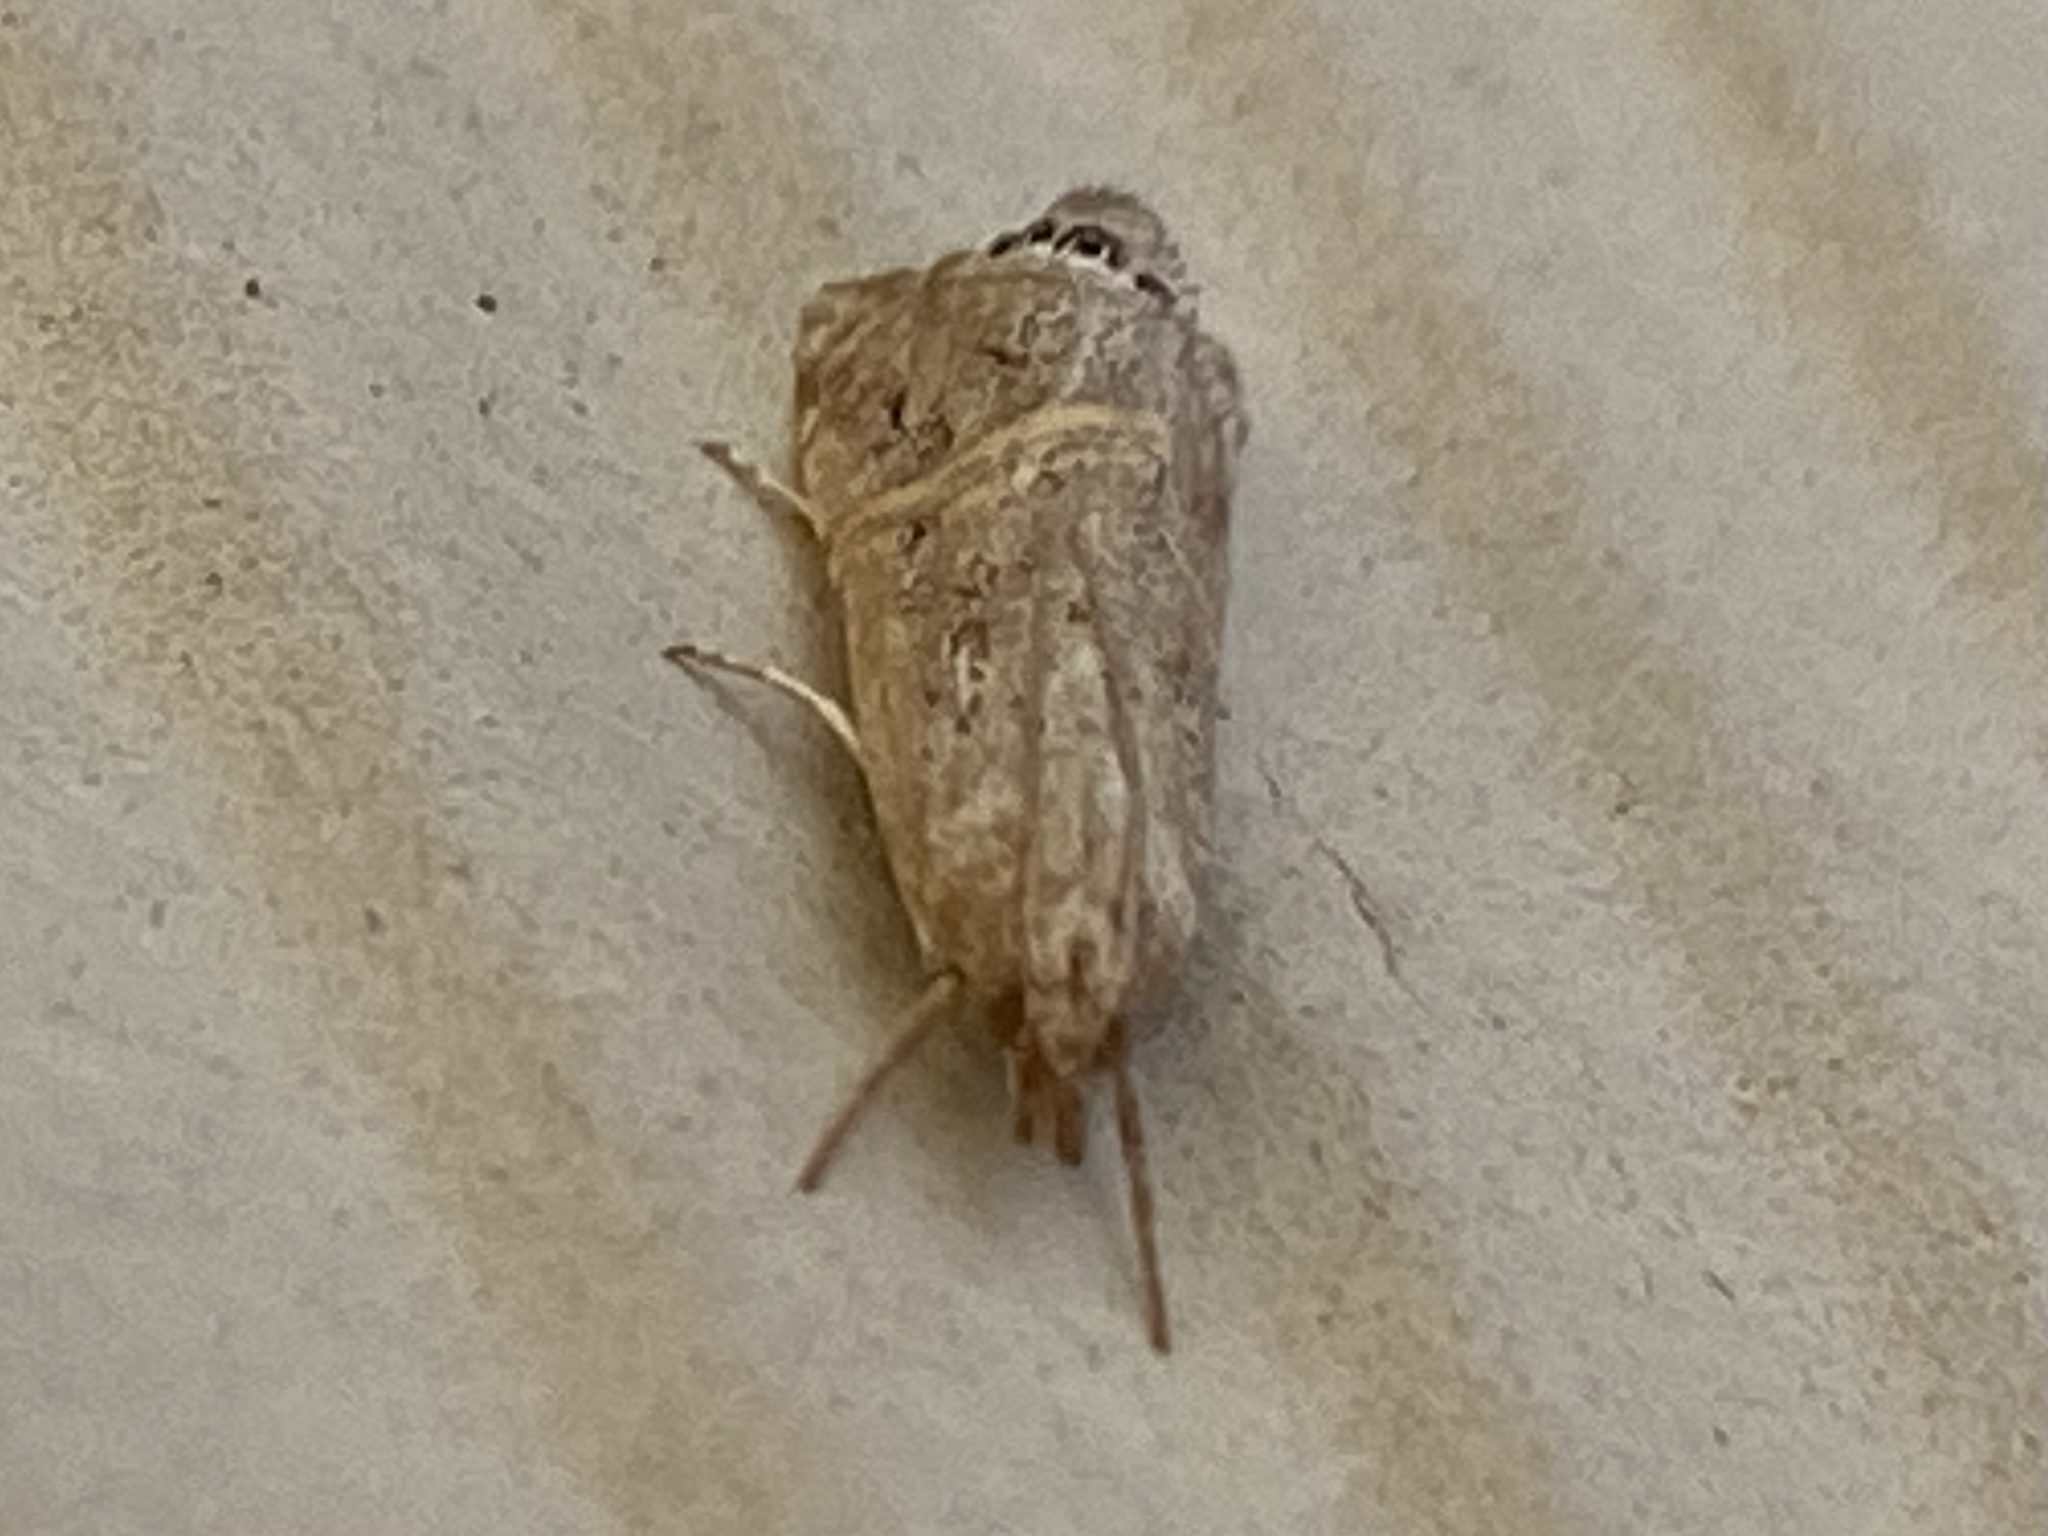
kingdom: Animalia
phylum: Arthropoda
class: Insecta
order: Lepidoptera
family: Crambidae
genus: Euchromius
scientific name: Euchromius ocellea
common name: Necklace veneer moth
